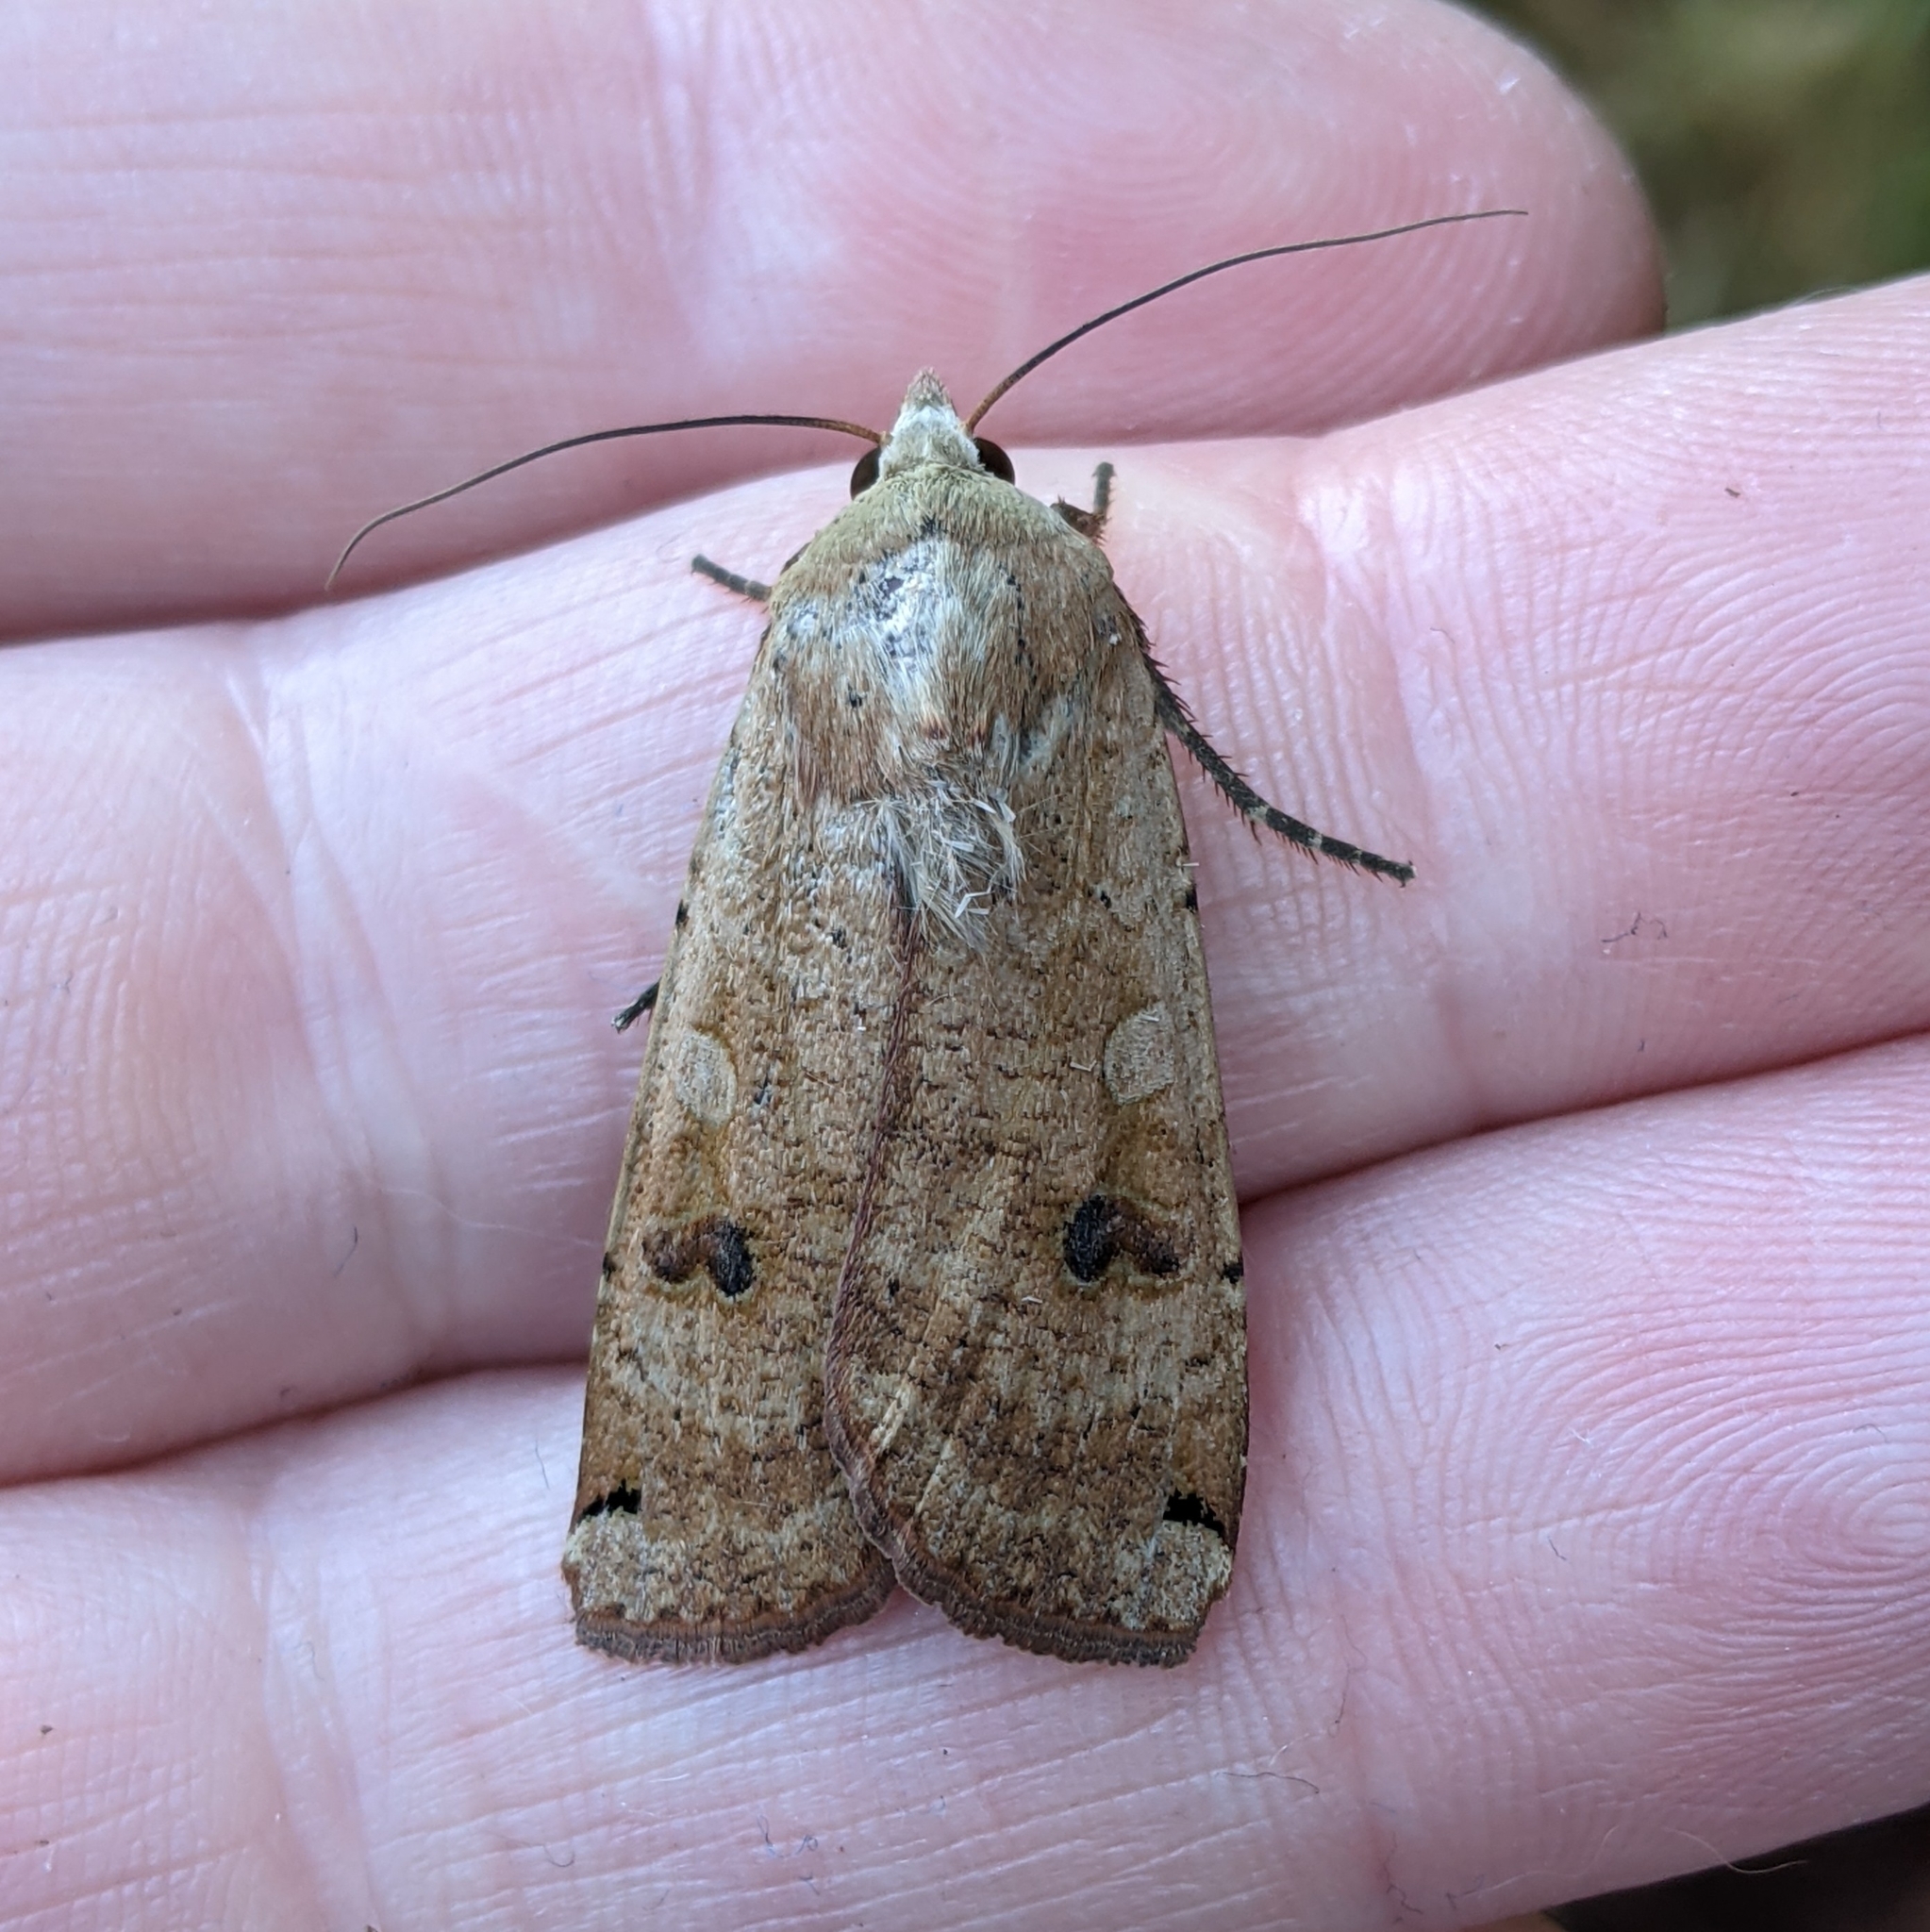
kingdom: Animalia
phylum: Arthropoda
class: Insecta
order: Lepidoptera
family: Noctuidae
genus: Noctua
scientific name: Noctua pronuba
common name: Large yellow underwing
